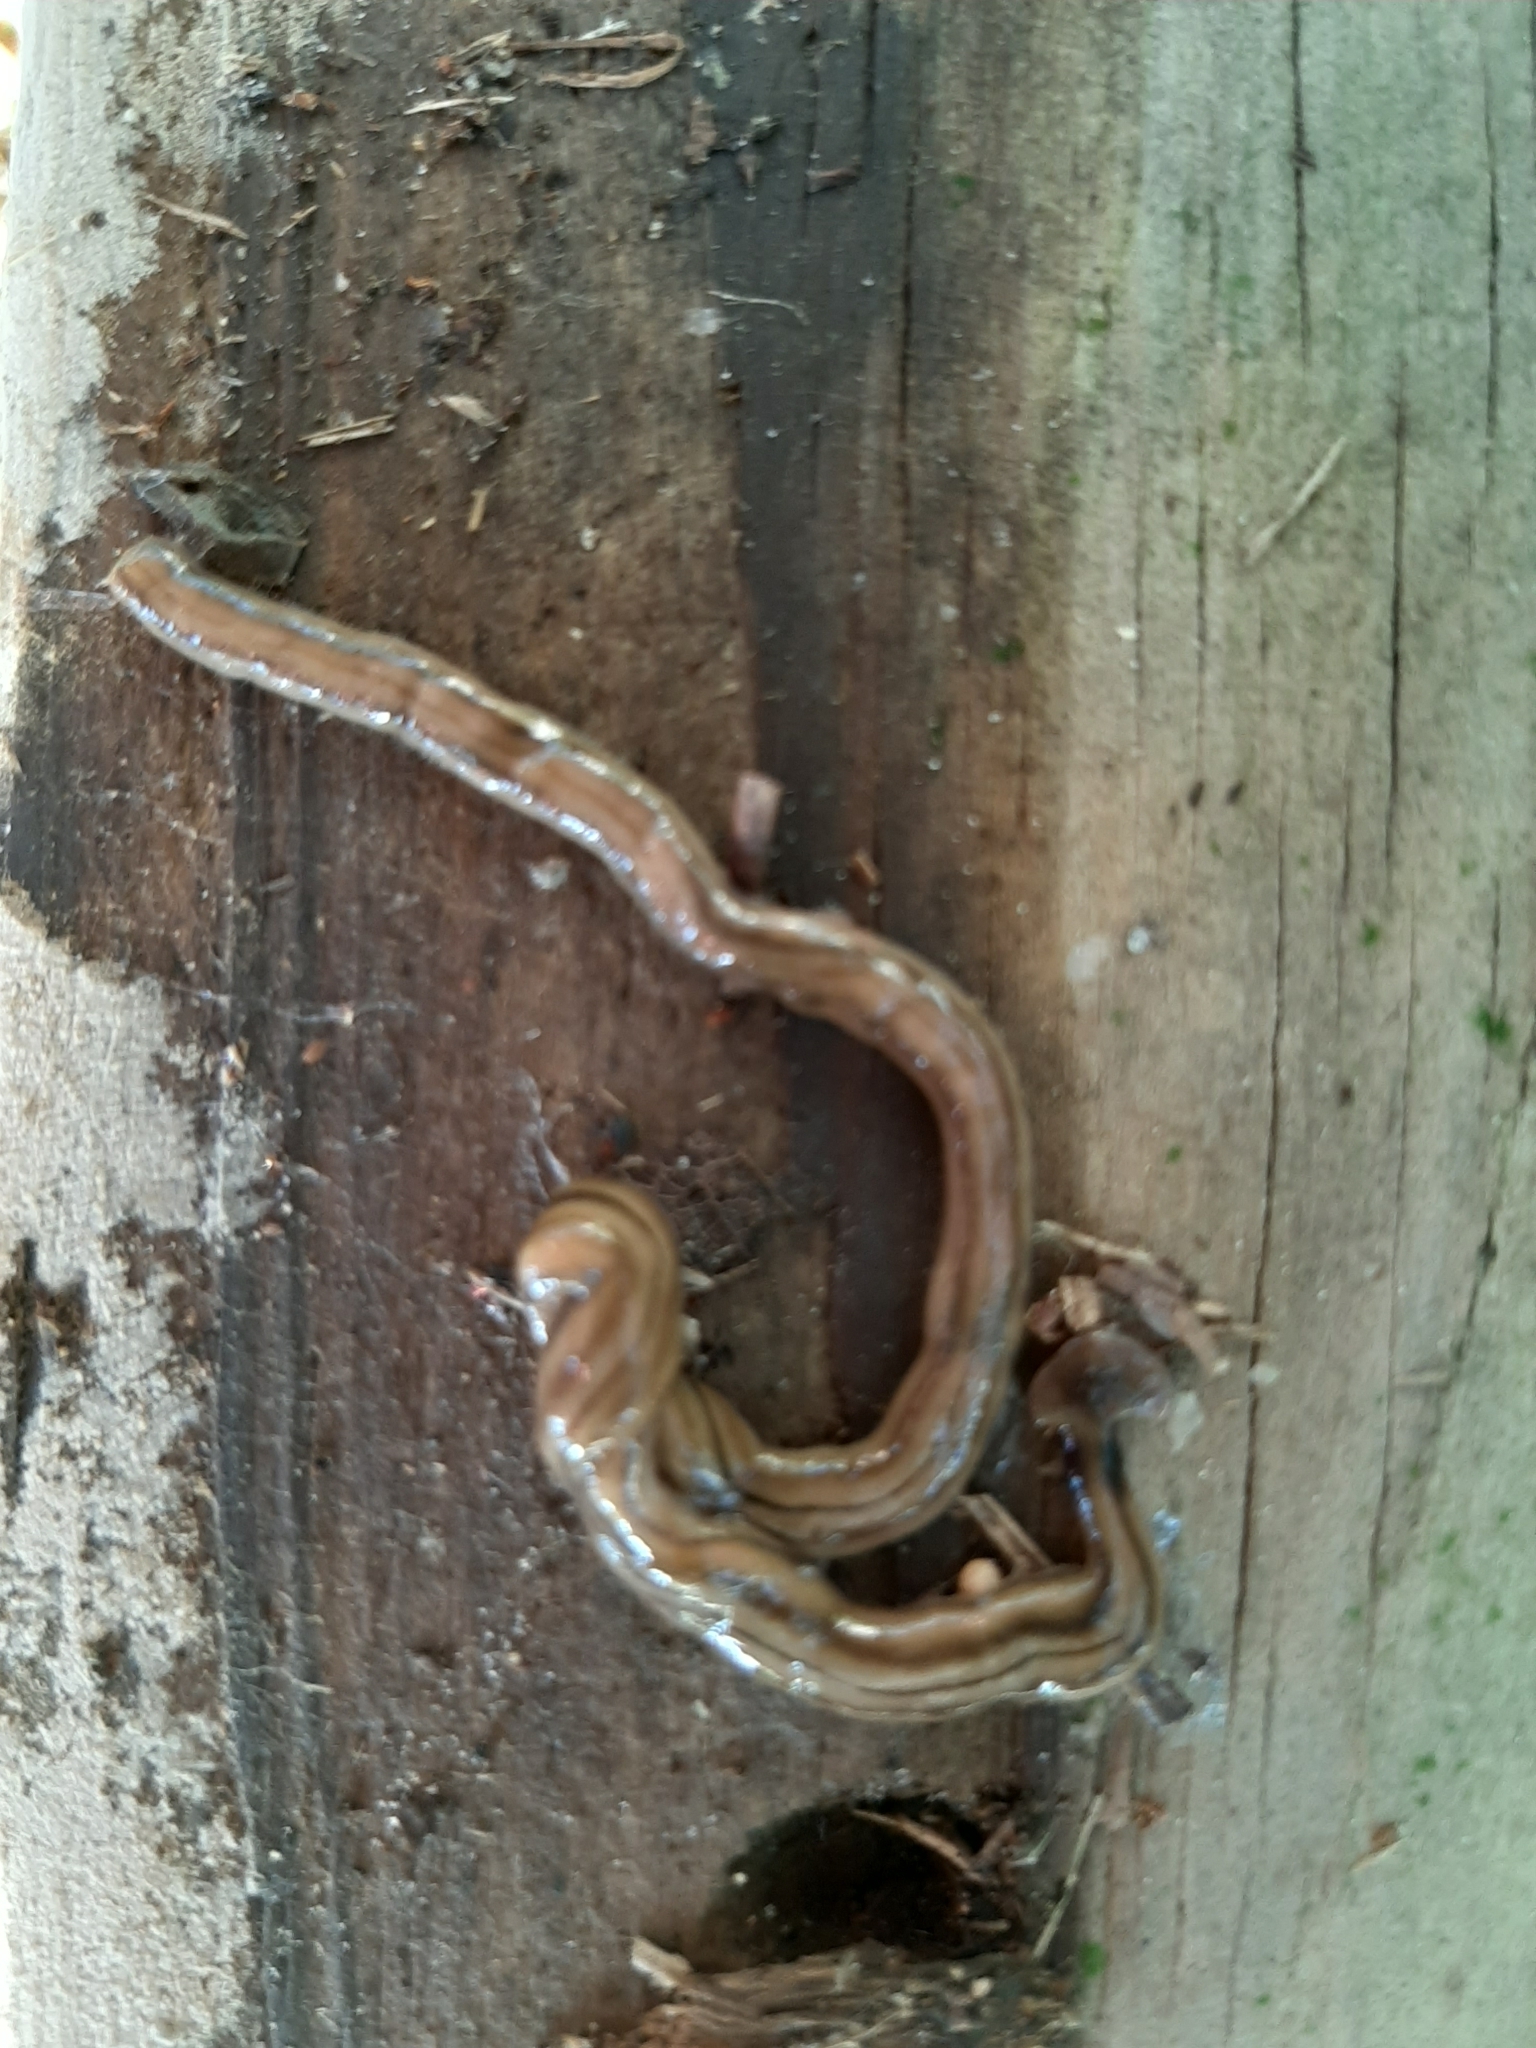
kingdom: Animalia
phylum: Platyhelminthes
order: Tricladida
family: Geoplanidae
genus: Bipalium
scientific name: Bipalium kewense
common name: Hammerhead flatworm
